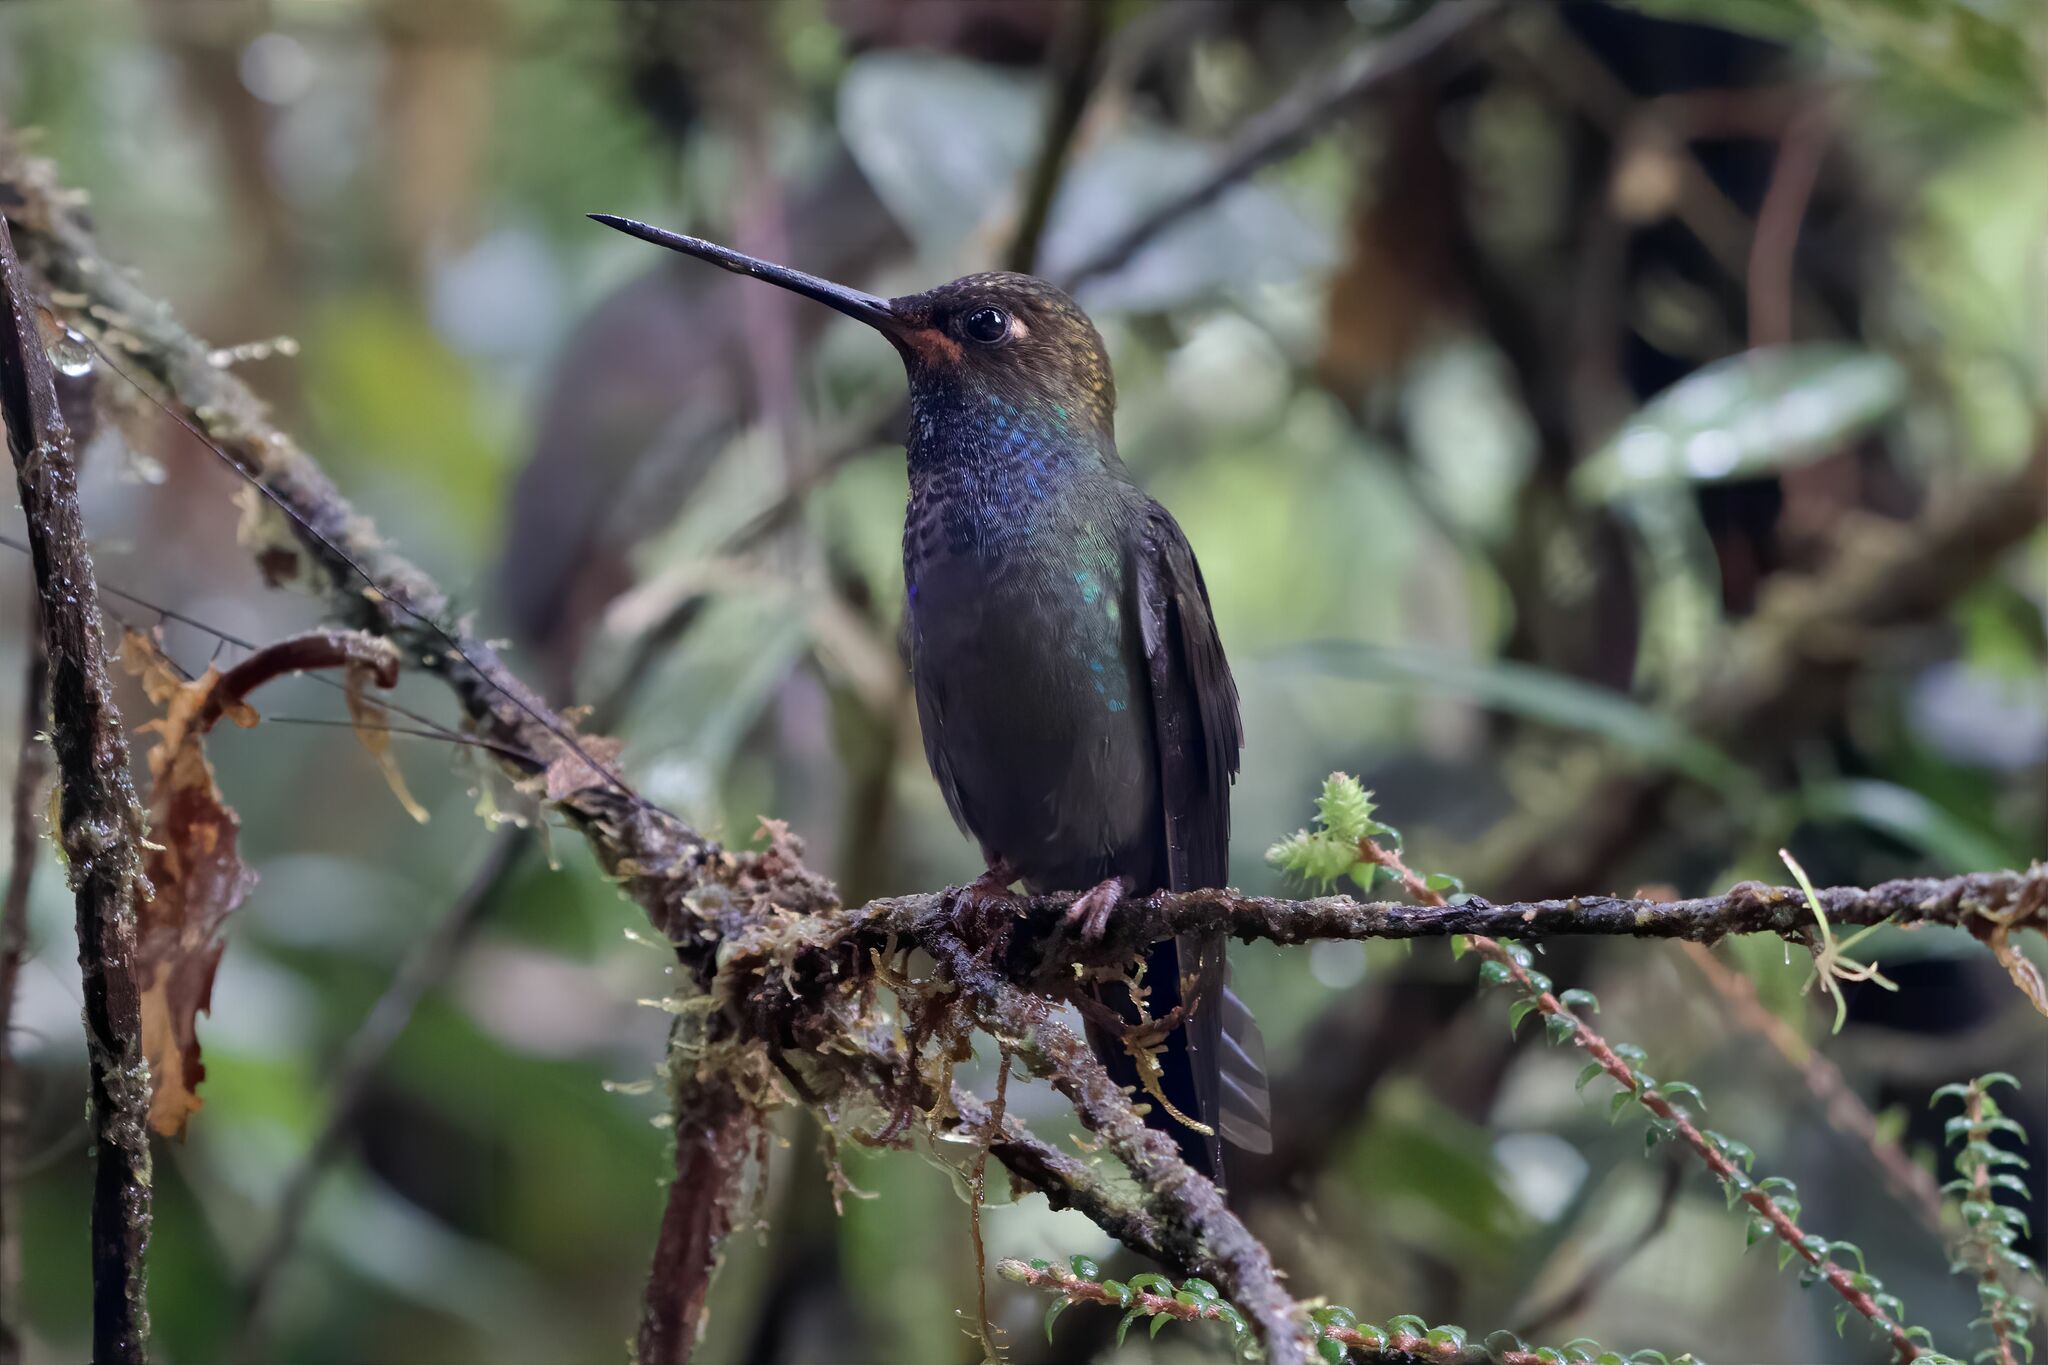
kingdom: Animalia
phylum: Chordata
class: Aves
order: Apodiformes
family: Trochilidae
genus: Urochroa
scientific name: Urochroa bougueri
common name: White-tailed hillstar
